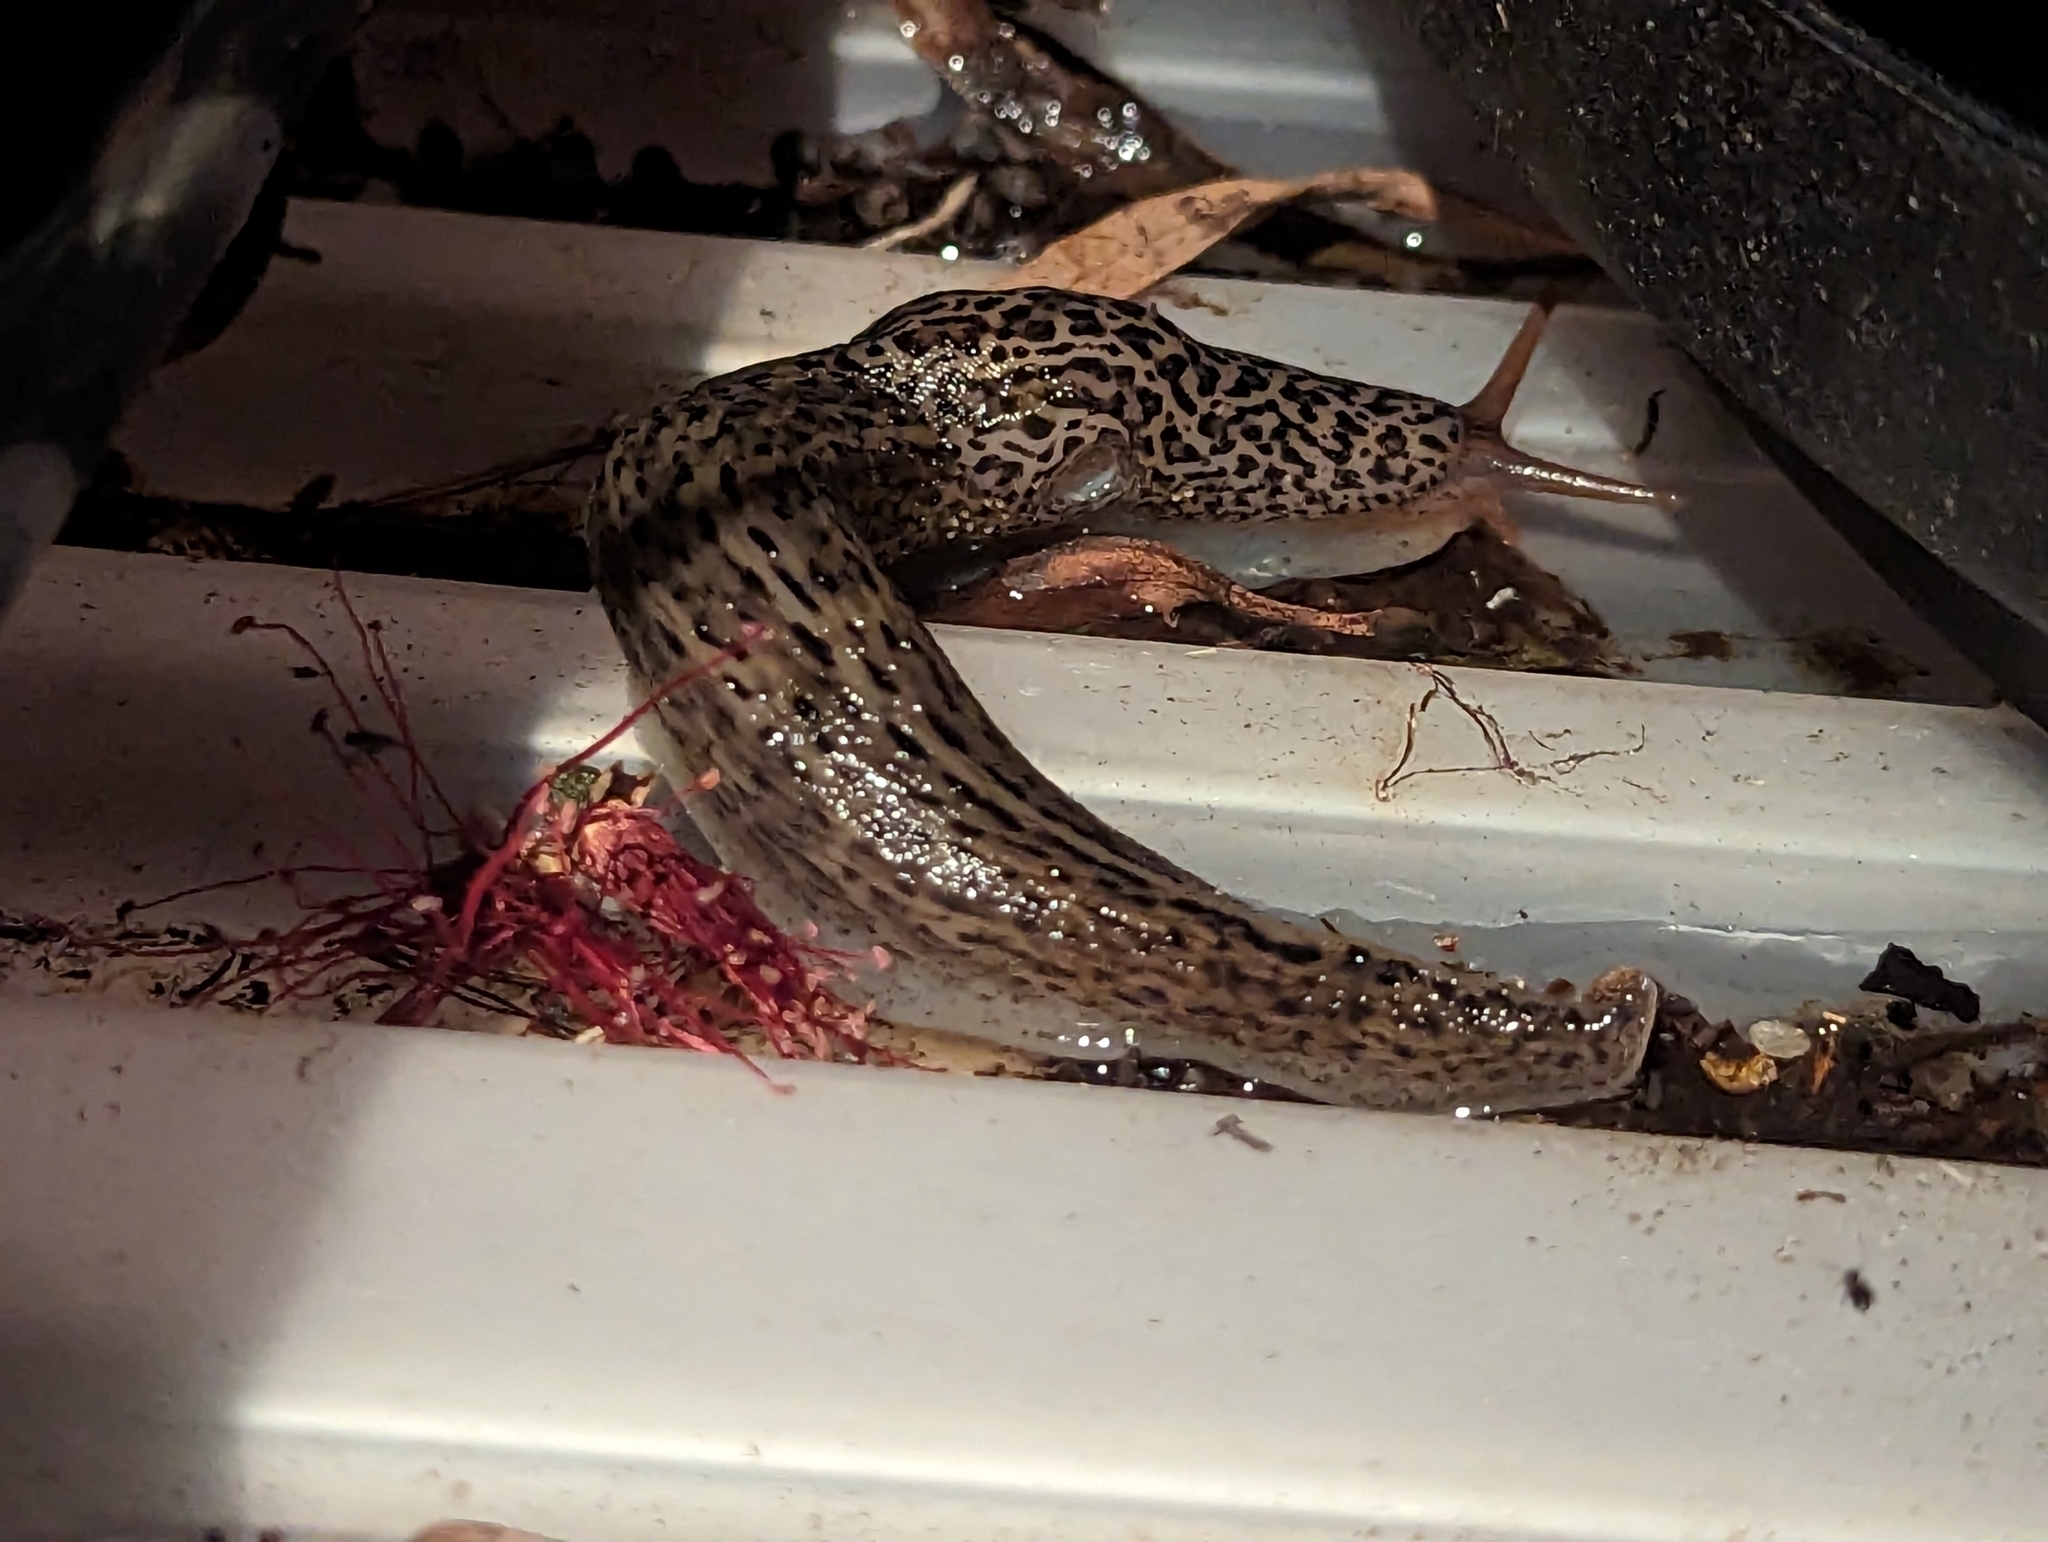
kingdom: Animalia
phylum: Mollusca
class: Gastropoda
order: Stylommatophora
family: Limacidae
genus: Limax
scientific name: Limax maximus
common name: Great grey slug
